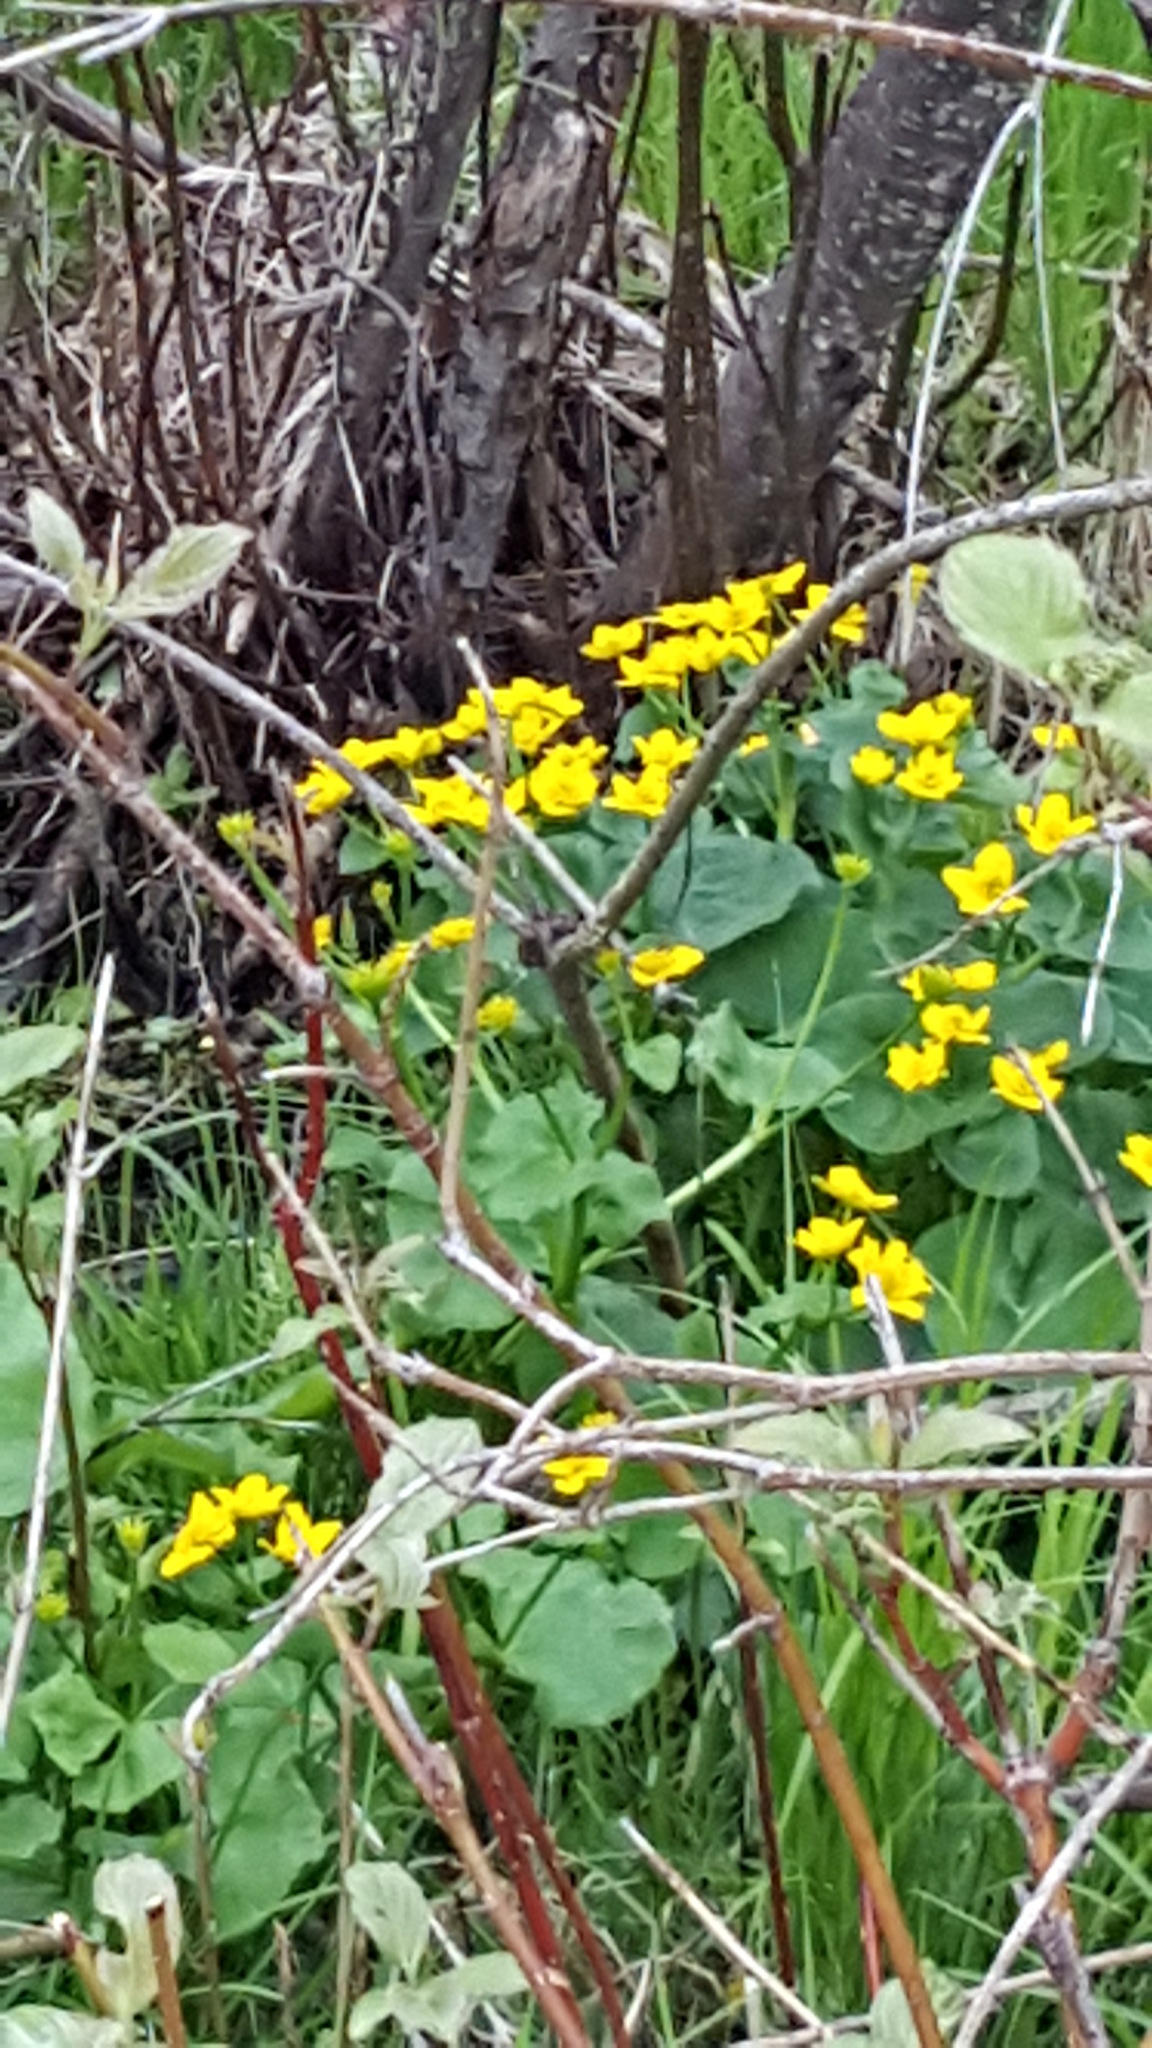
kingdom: Plantae
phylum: Tracheophyta
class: Magnoliopsida
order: Ranunculales
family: Ranunculaceae
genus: Caltha
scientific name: Caltha palustris
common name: Marsh marigold
